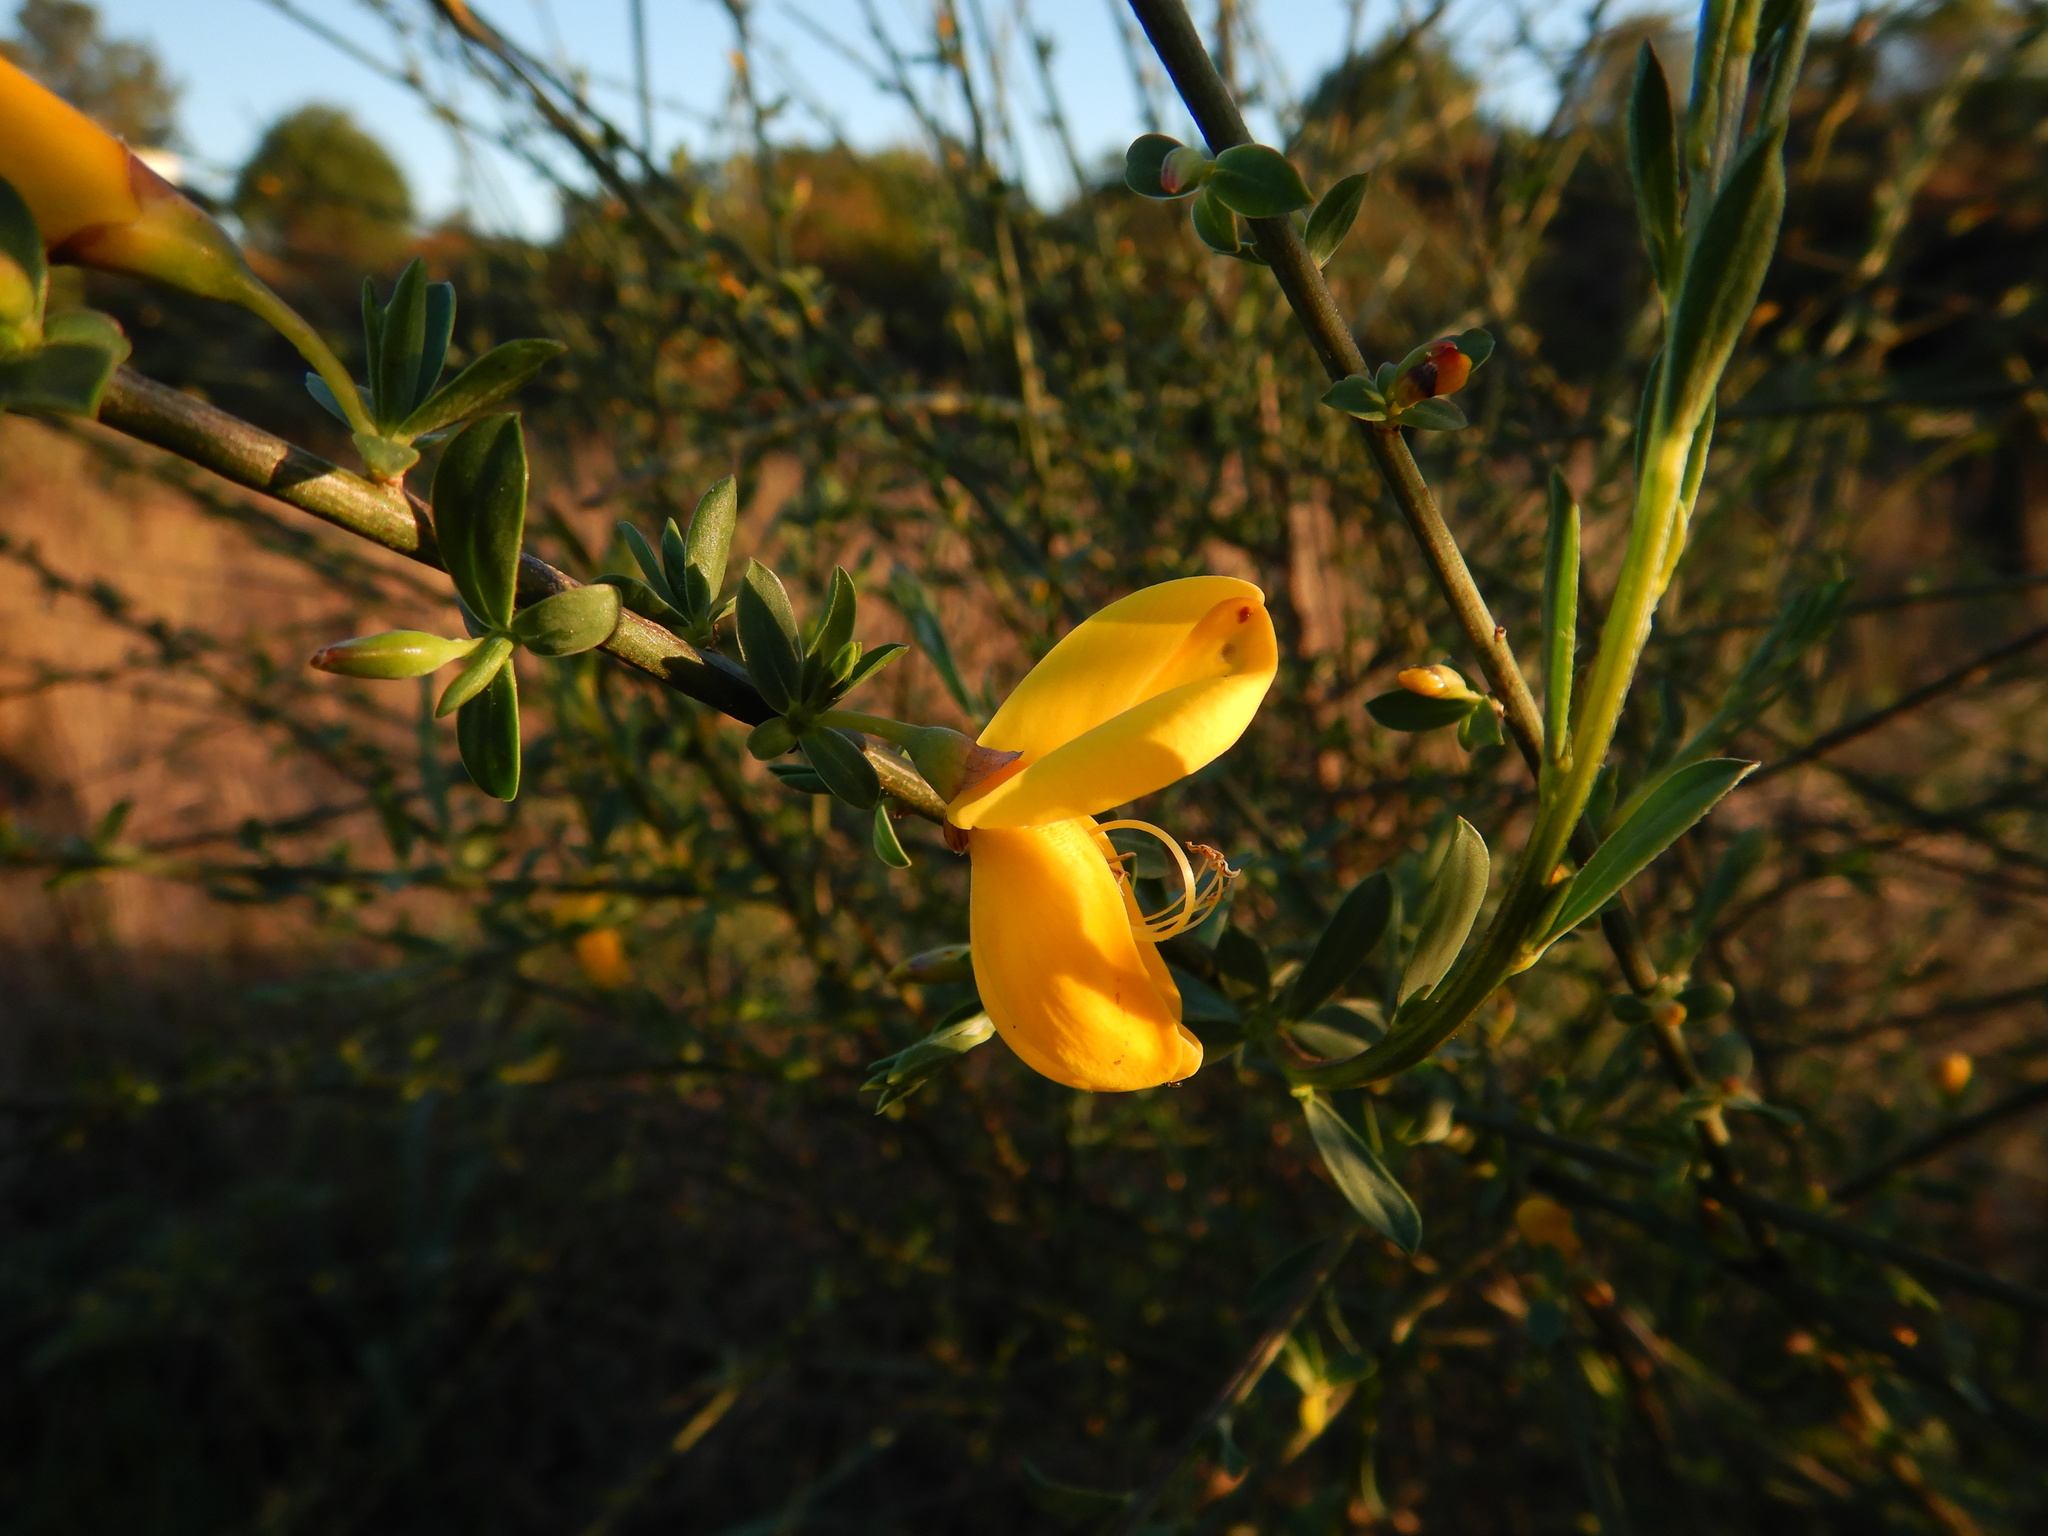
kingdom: Plantae
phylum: Tracheophyta
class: Magnoliopsida
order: Fabales
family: Fabaceae
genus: Cytisus
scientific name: Cytisus grandiflorus
